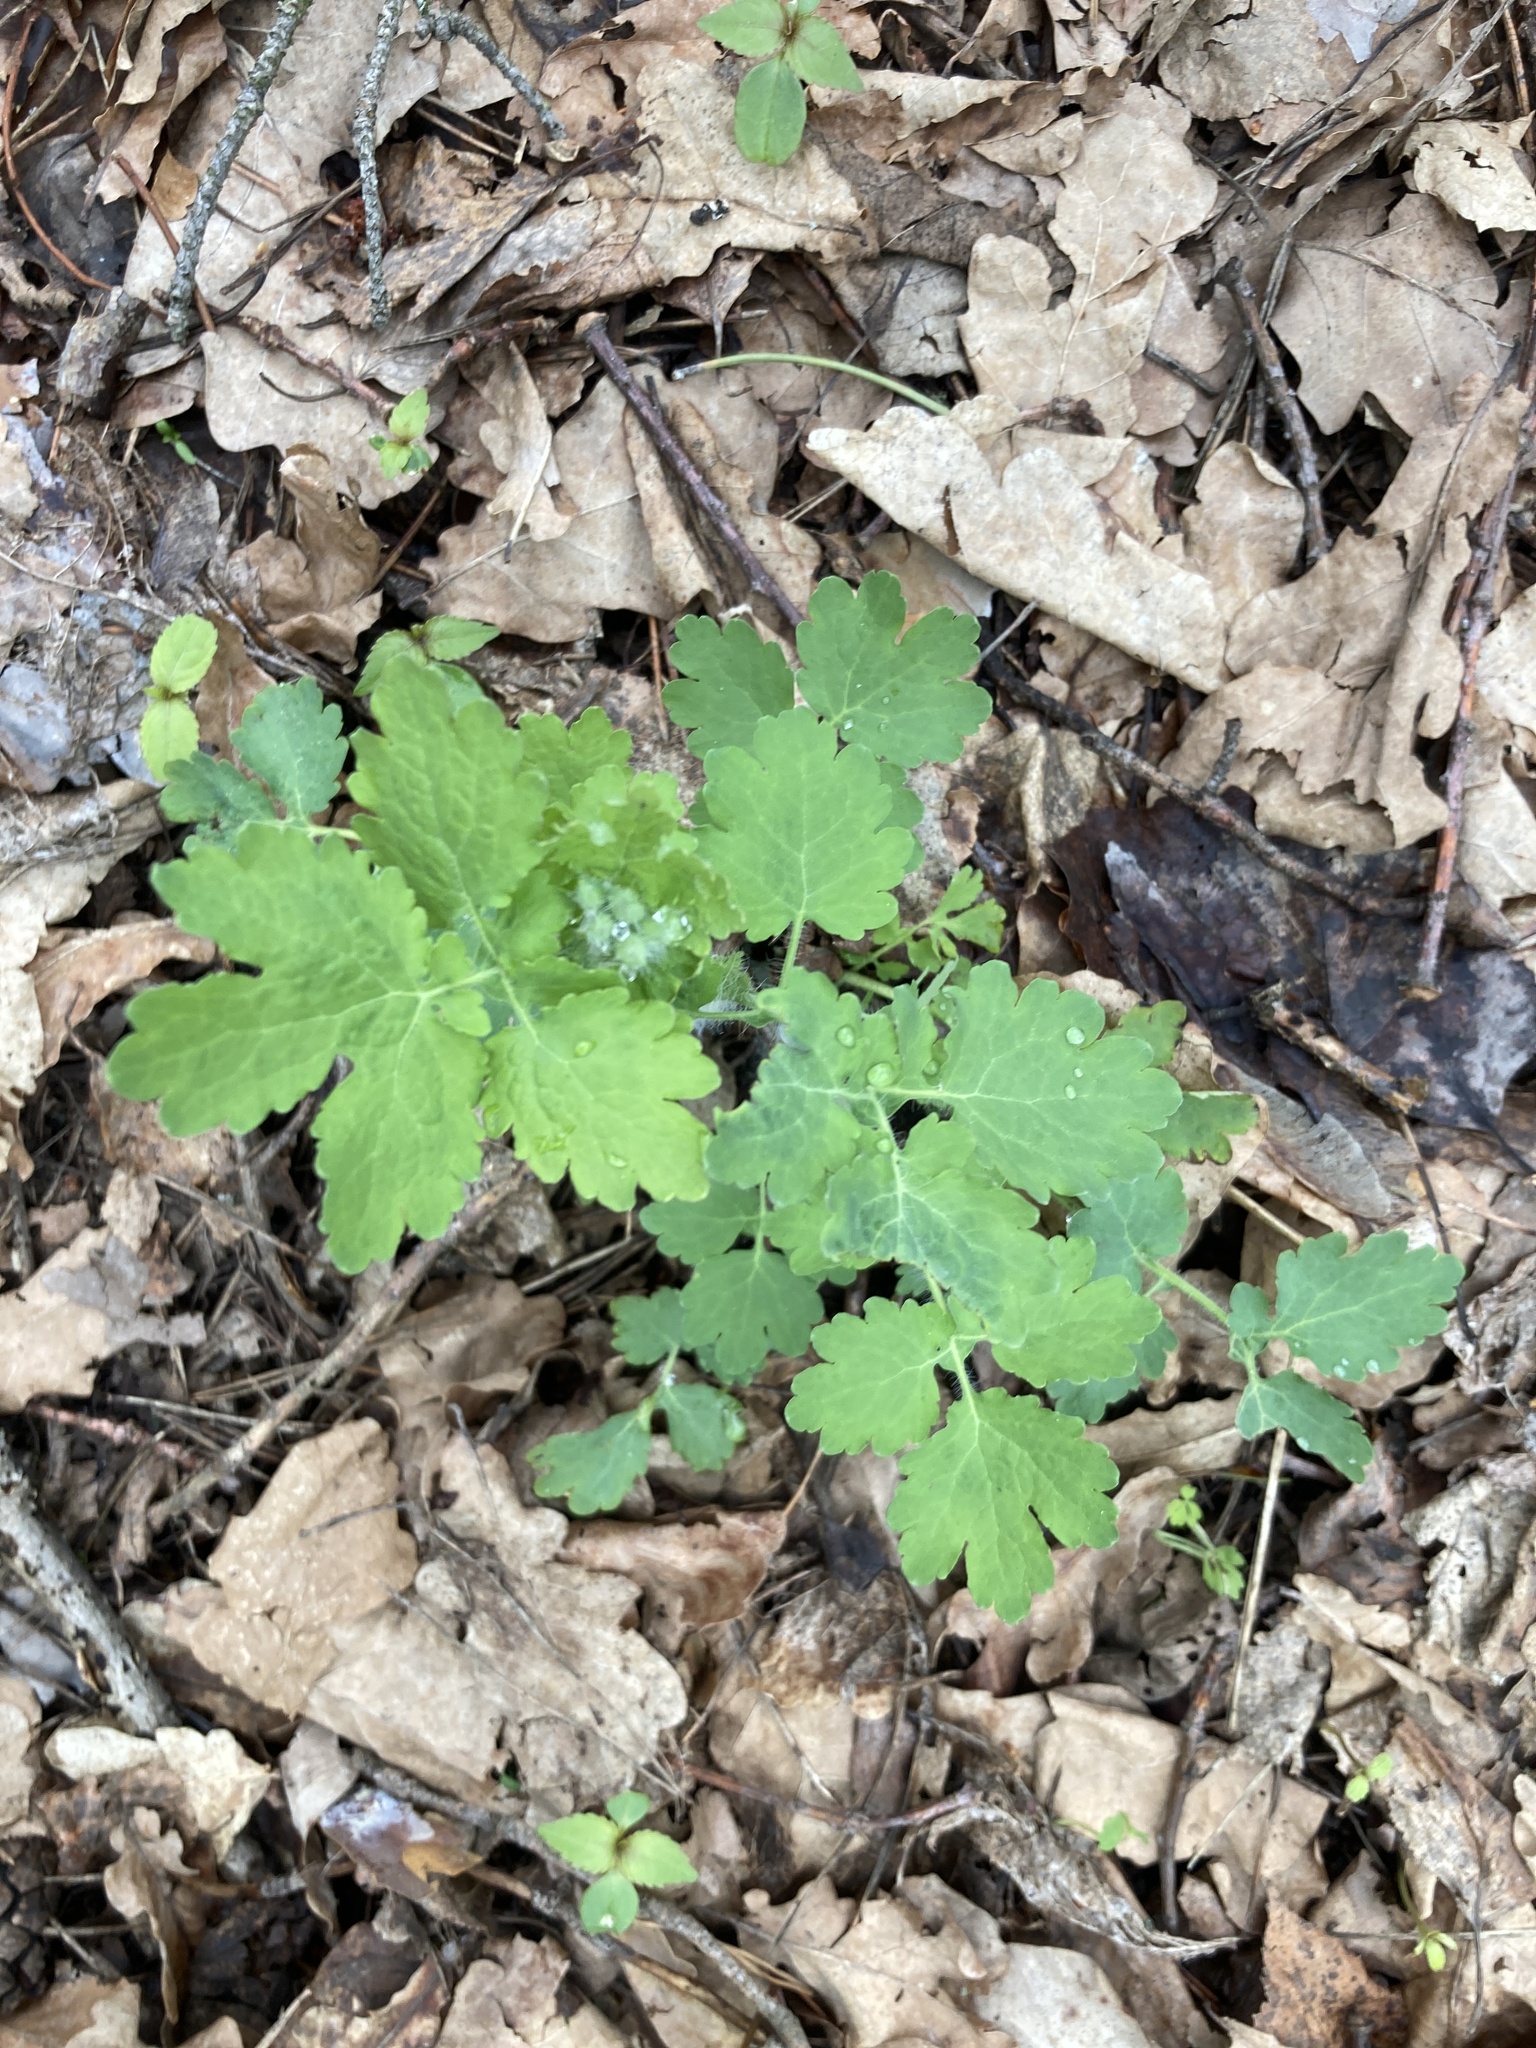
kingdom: Plantae
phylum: Tracheophyta
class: Magnoliopsida
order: Ranunculales
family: Papaveraceae
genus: Chelidonium
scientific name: Chelidonium majus
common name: Greater celandine
